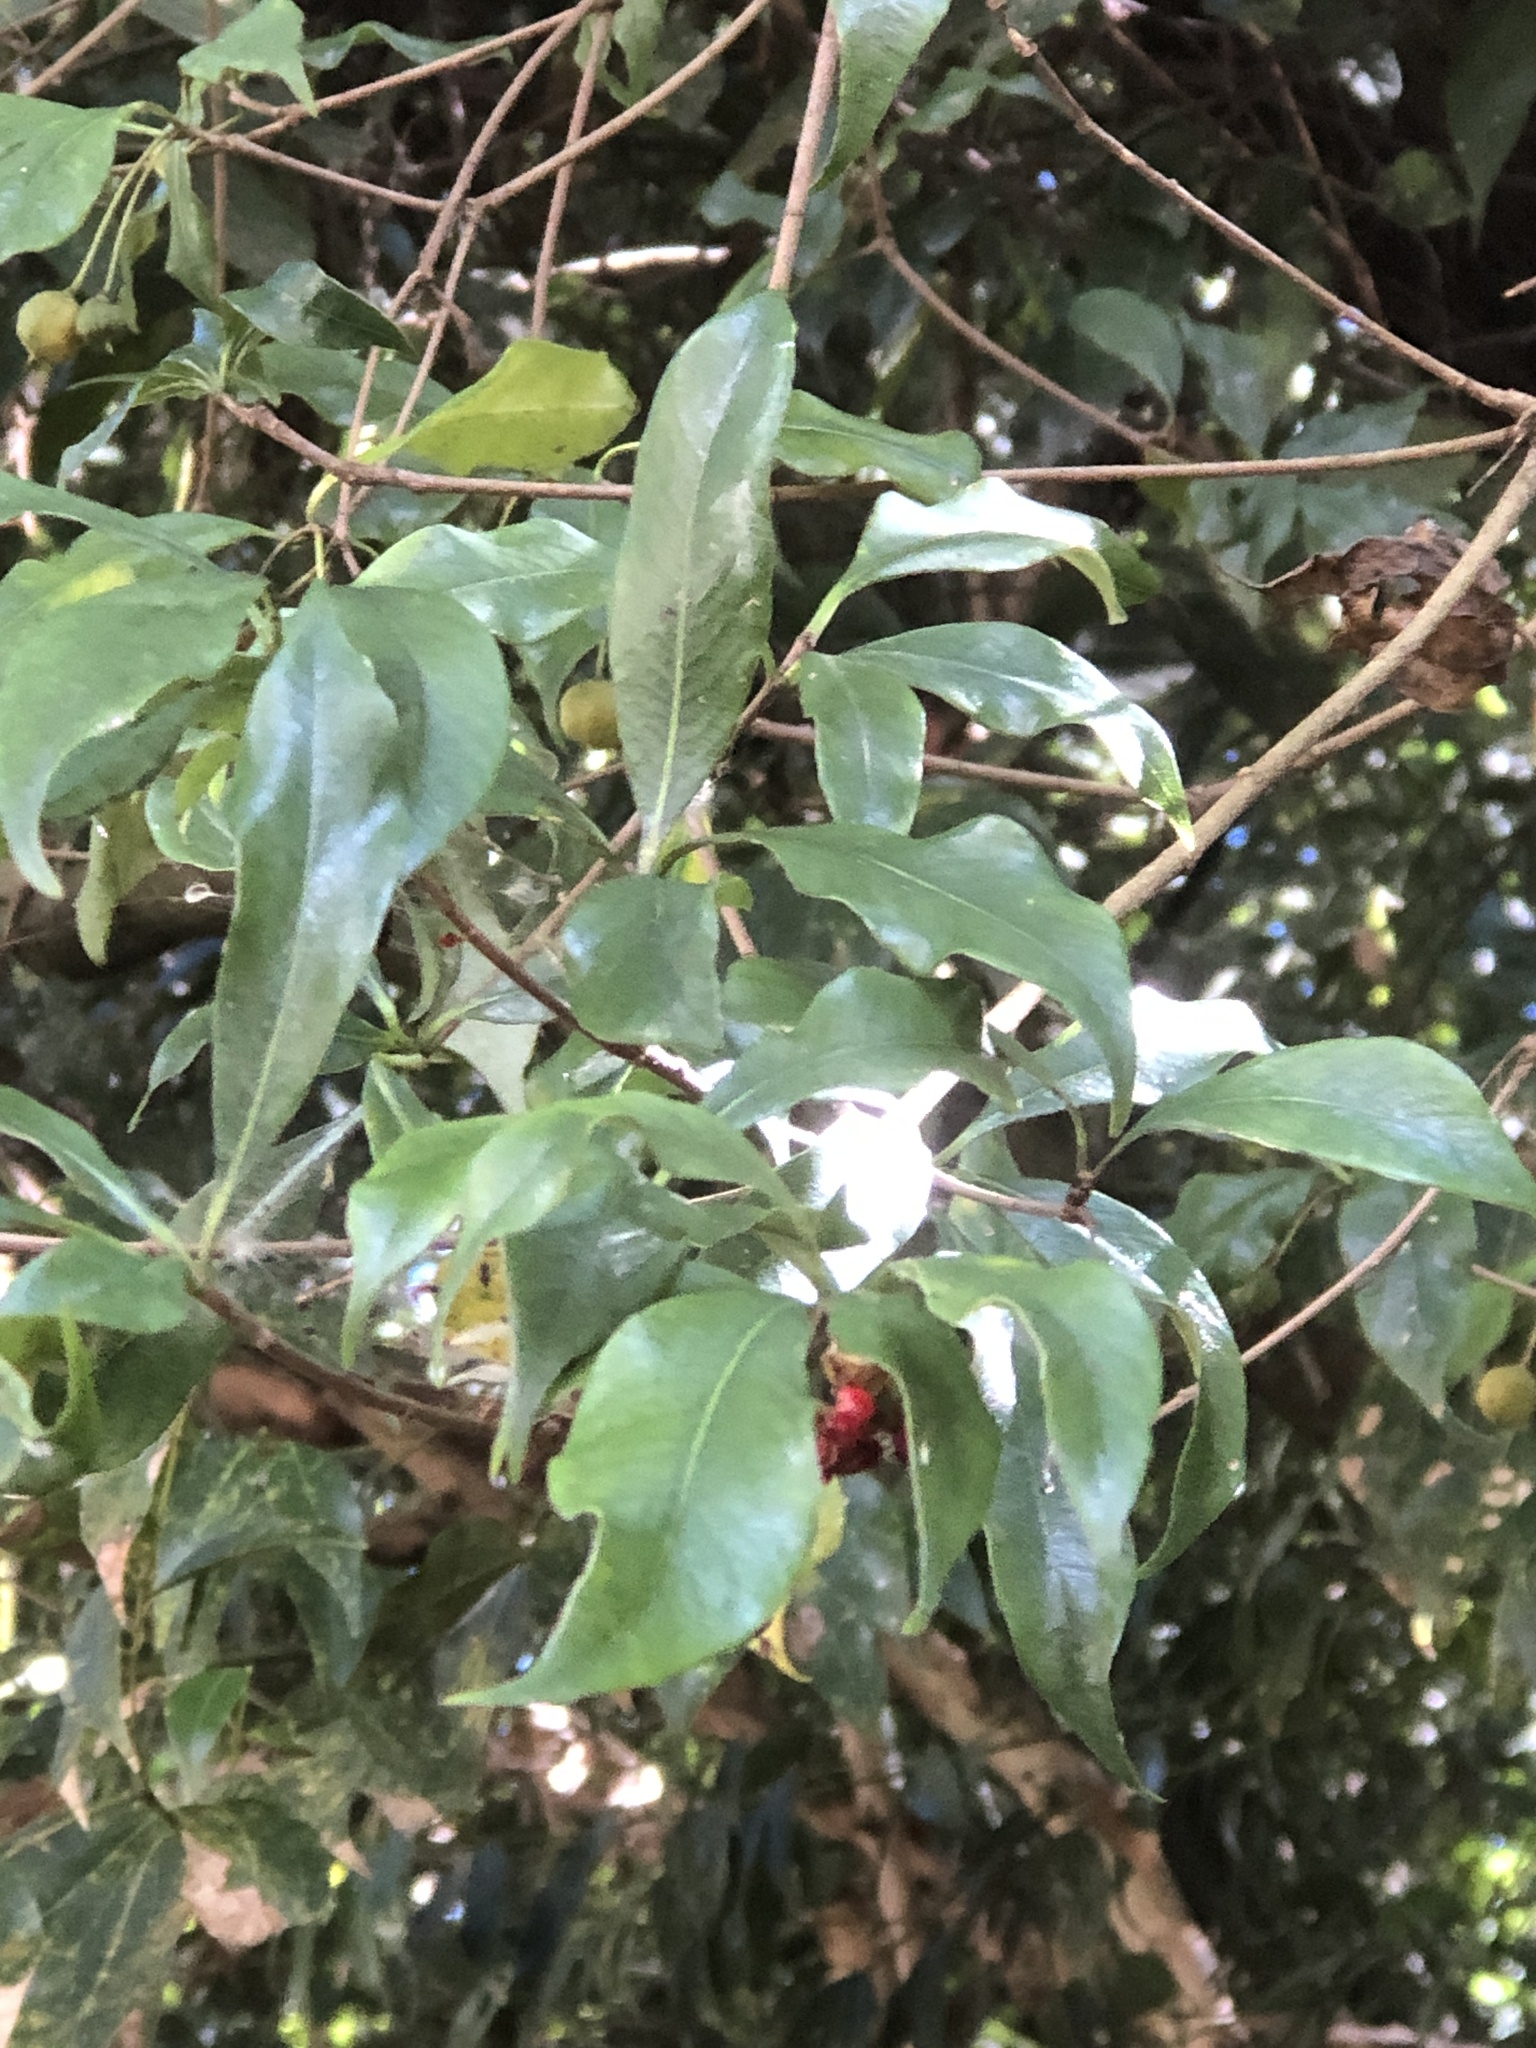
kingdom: Plantae
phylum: Tracheophyta
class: Magnoliopsida
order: Apiales
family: Pittosporaceae
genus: Pittosporum
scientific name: Pittosporum illicioides
